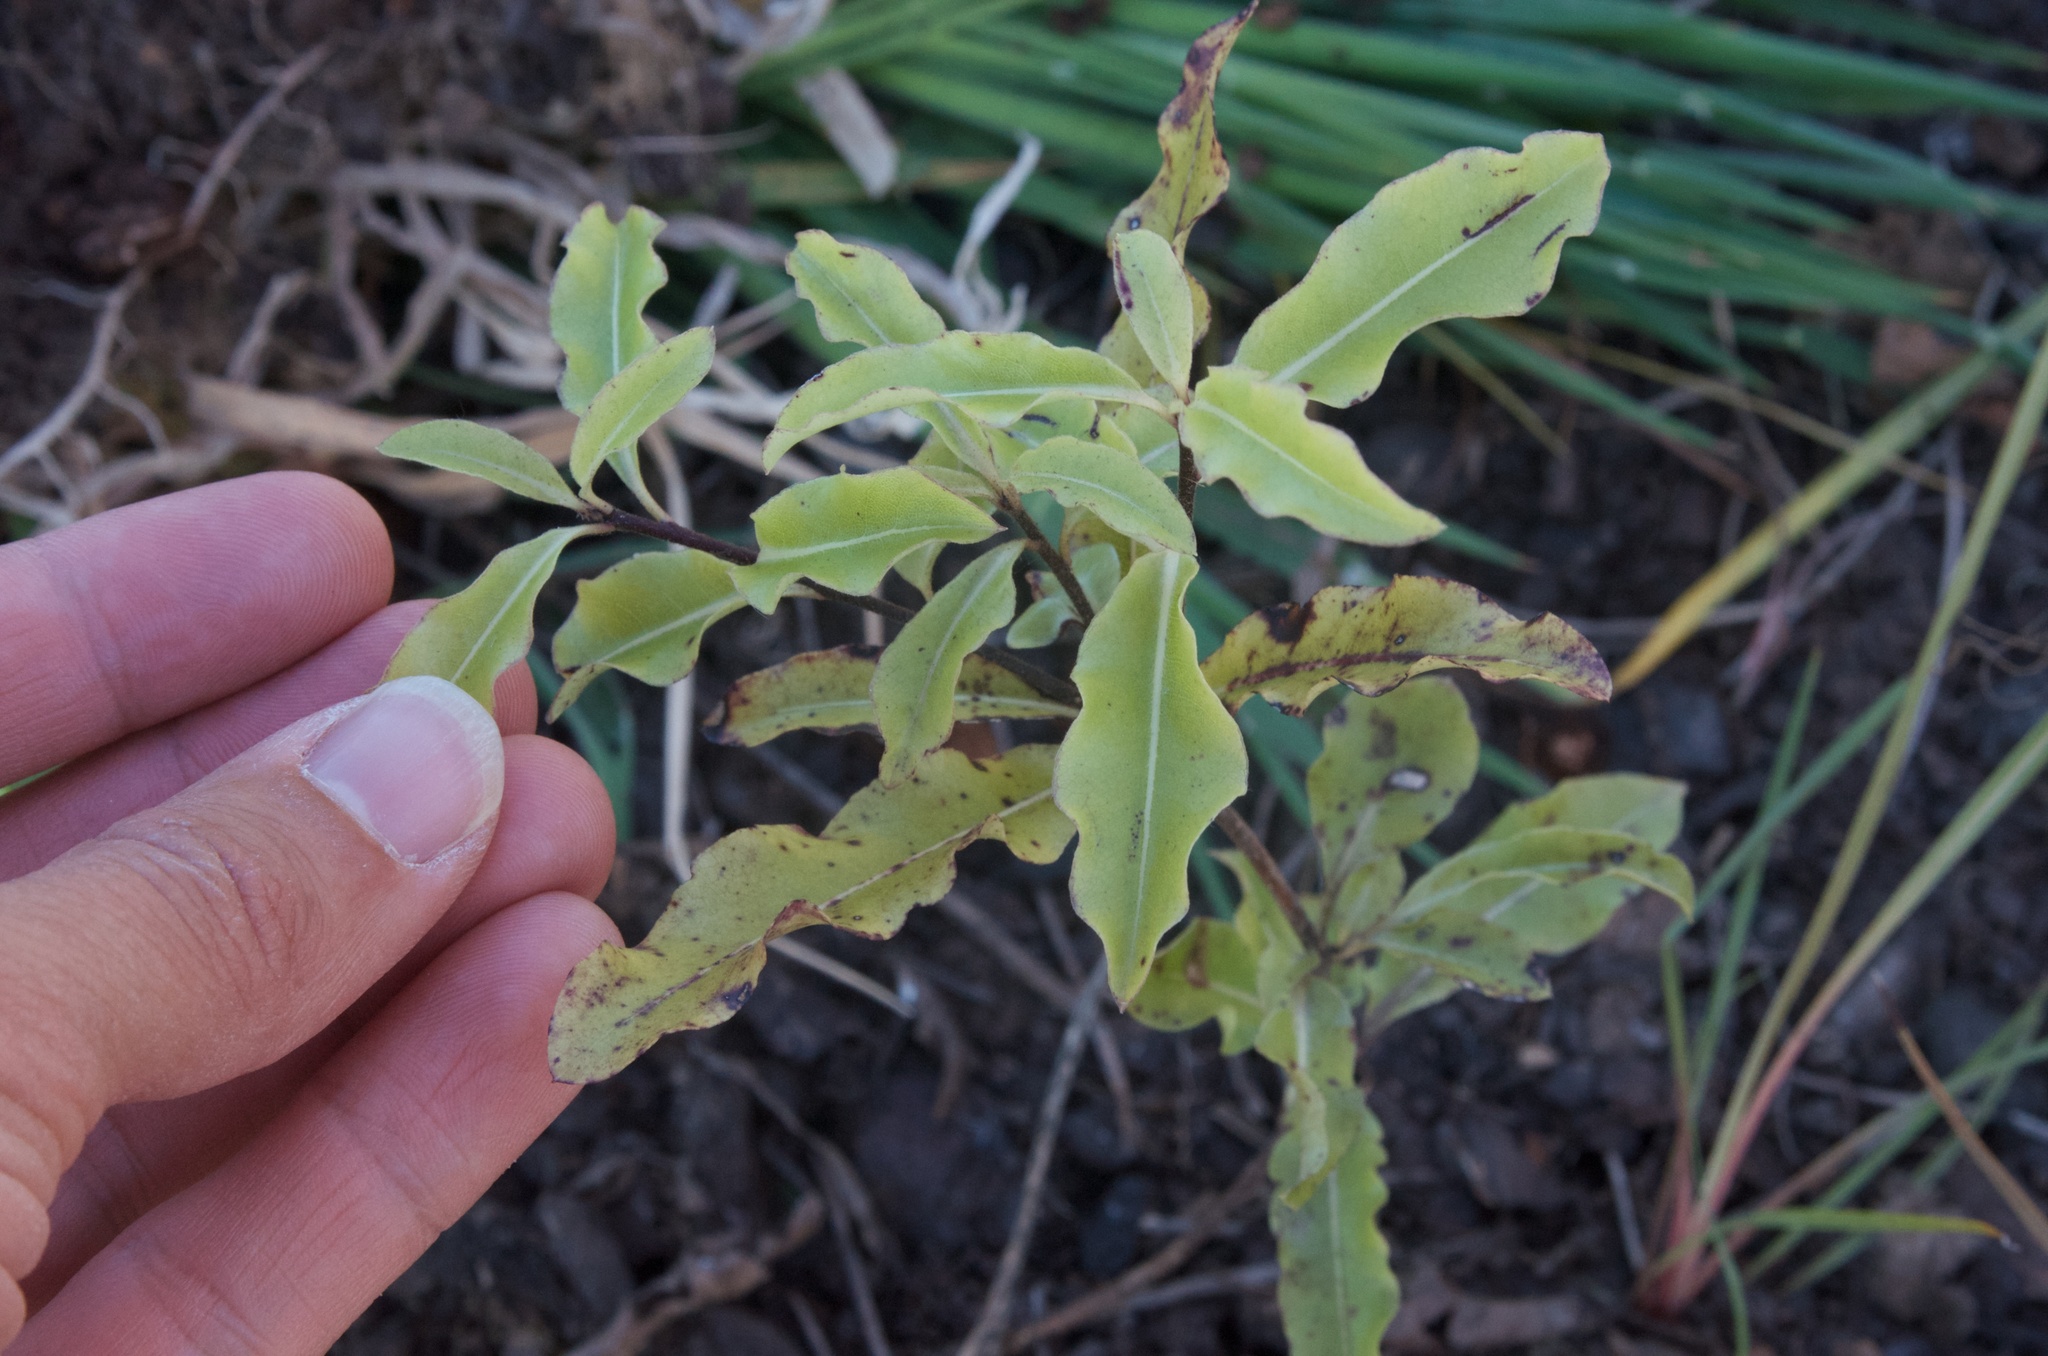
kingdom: Plantae
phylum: Tracheophyta
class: Magnoliopsida
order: Apiales
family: Pittosporaceae
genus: Pittosporum
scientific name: Pittosporum eugenioides
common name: Lemonwood
